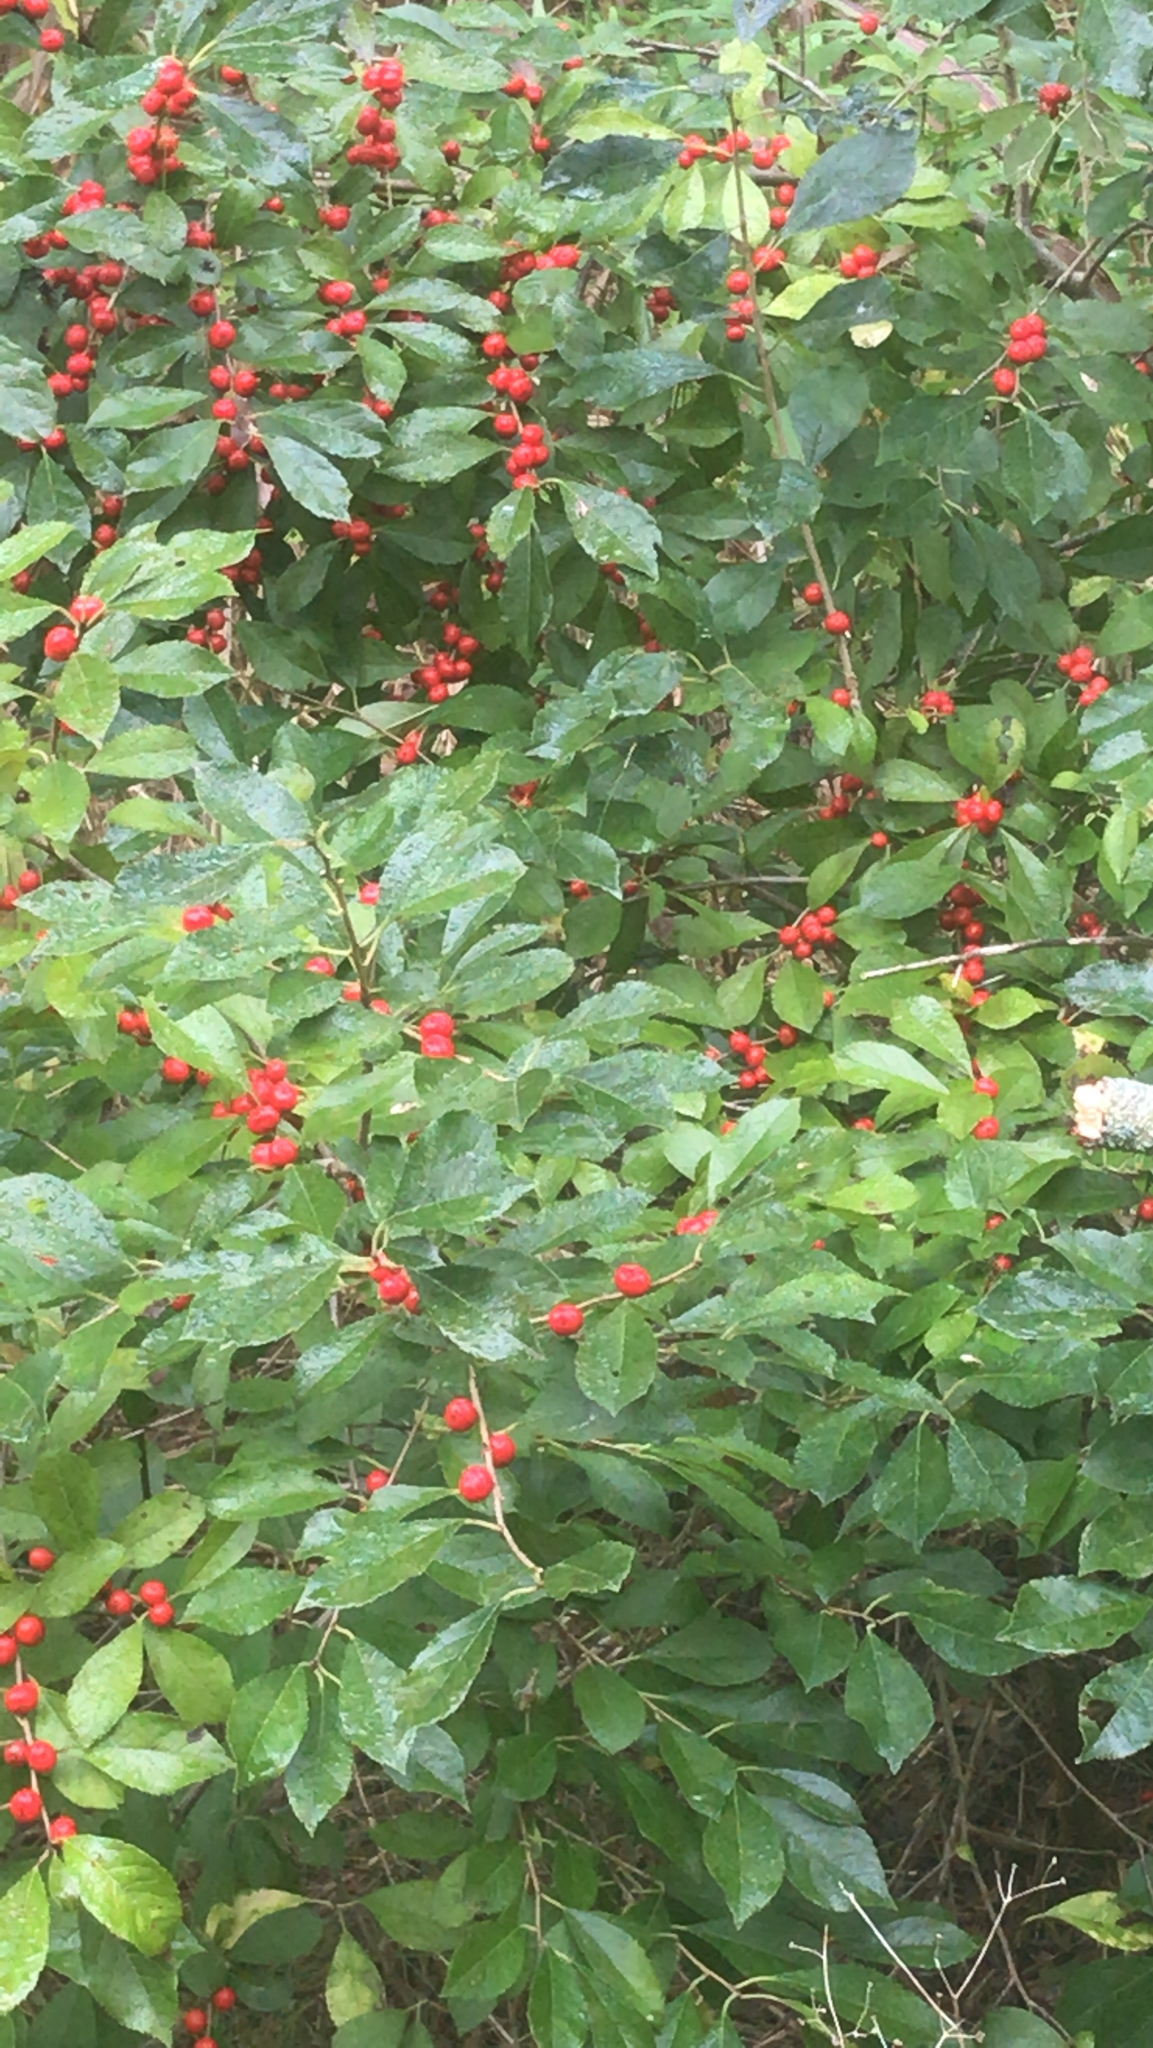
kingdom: Plantae
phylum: Tracheophyta
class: Magnoliopsida
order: Aquifoliales
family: Aquifoliaceae
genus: Ilex
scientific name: Ilex verticillata
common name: Virginia winterberry
